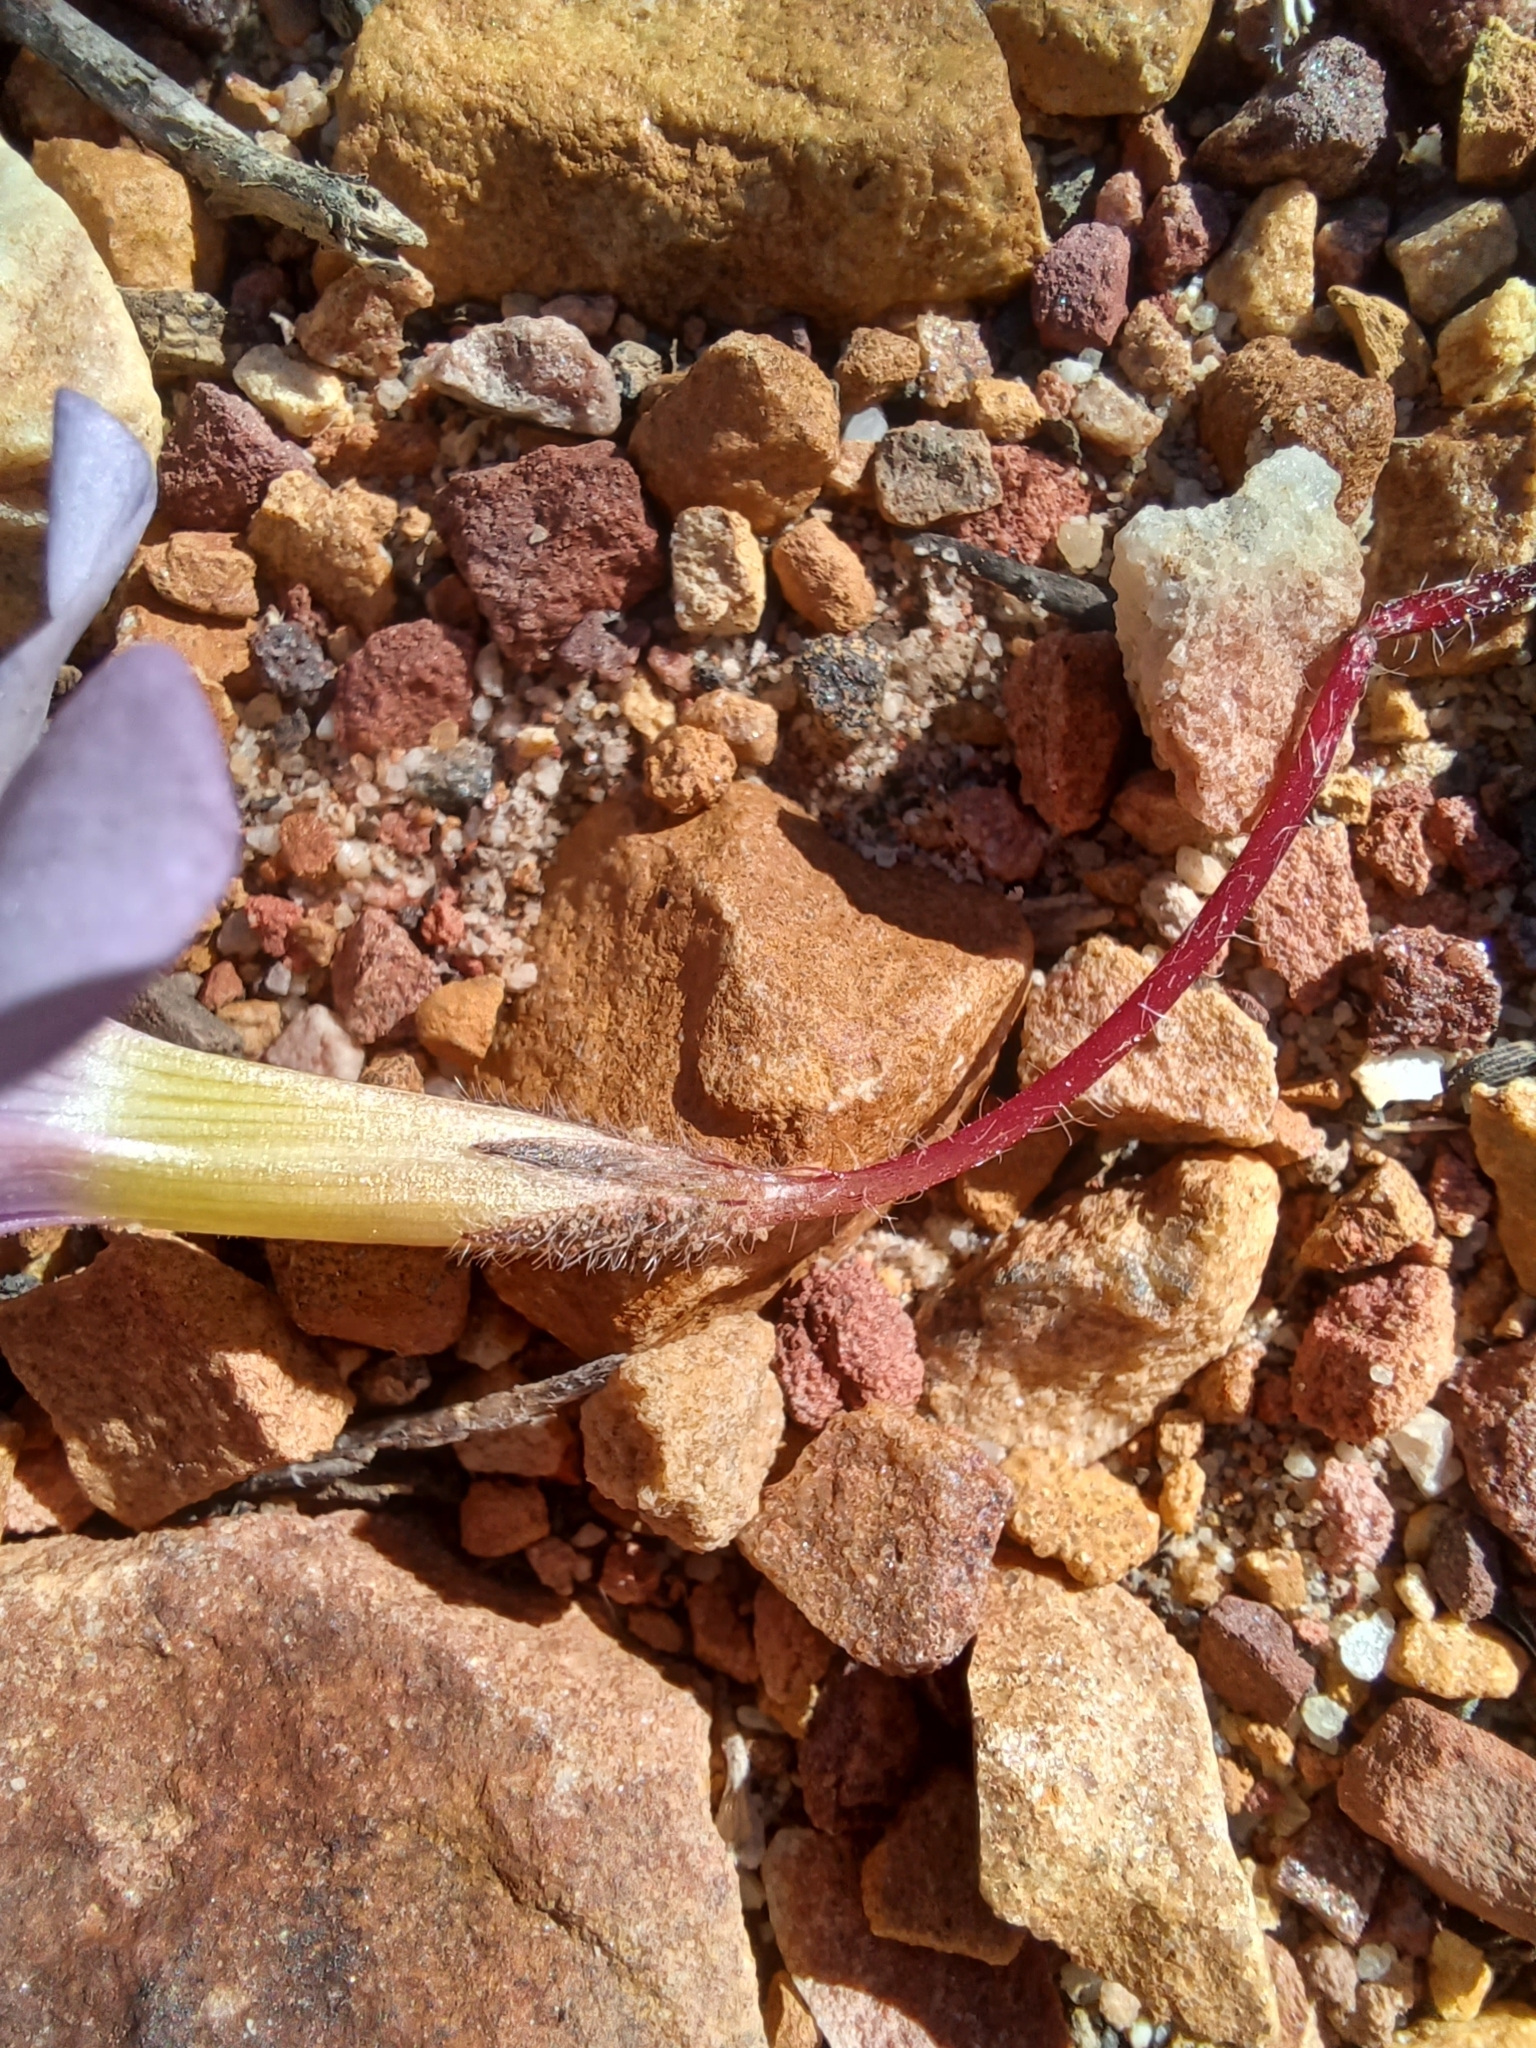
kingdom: Plantae
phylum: Tracheophyta
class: Magnoliopsida
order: Oxalidales
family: Oxalidaceae
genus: Oxalis
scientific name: Oxalis eckloniana
